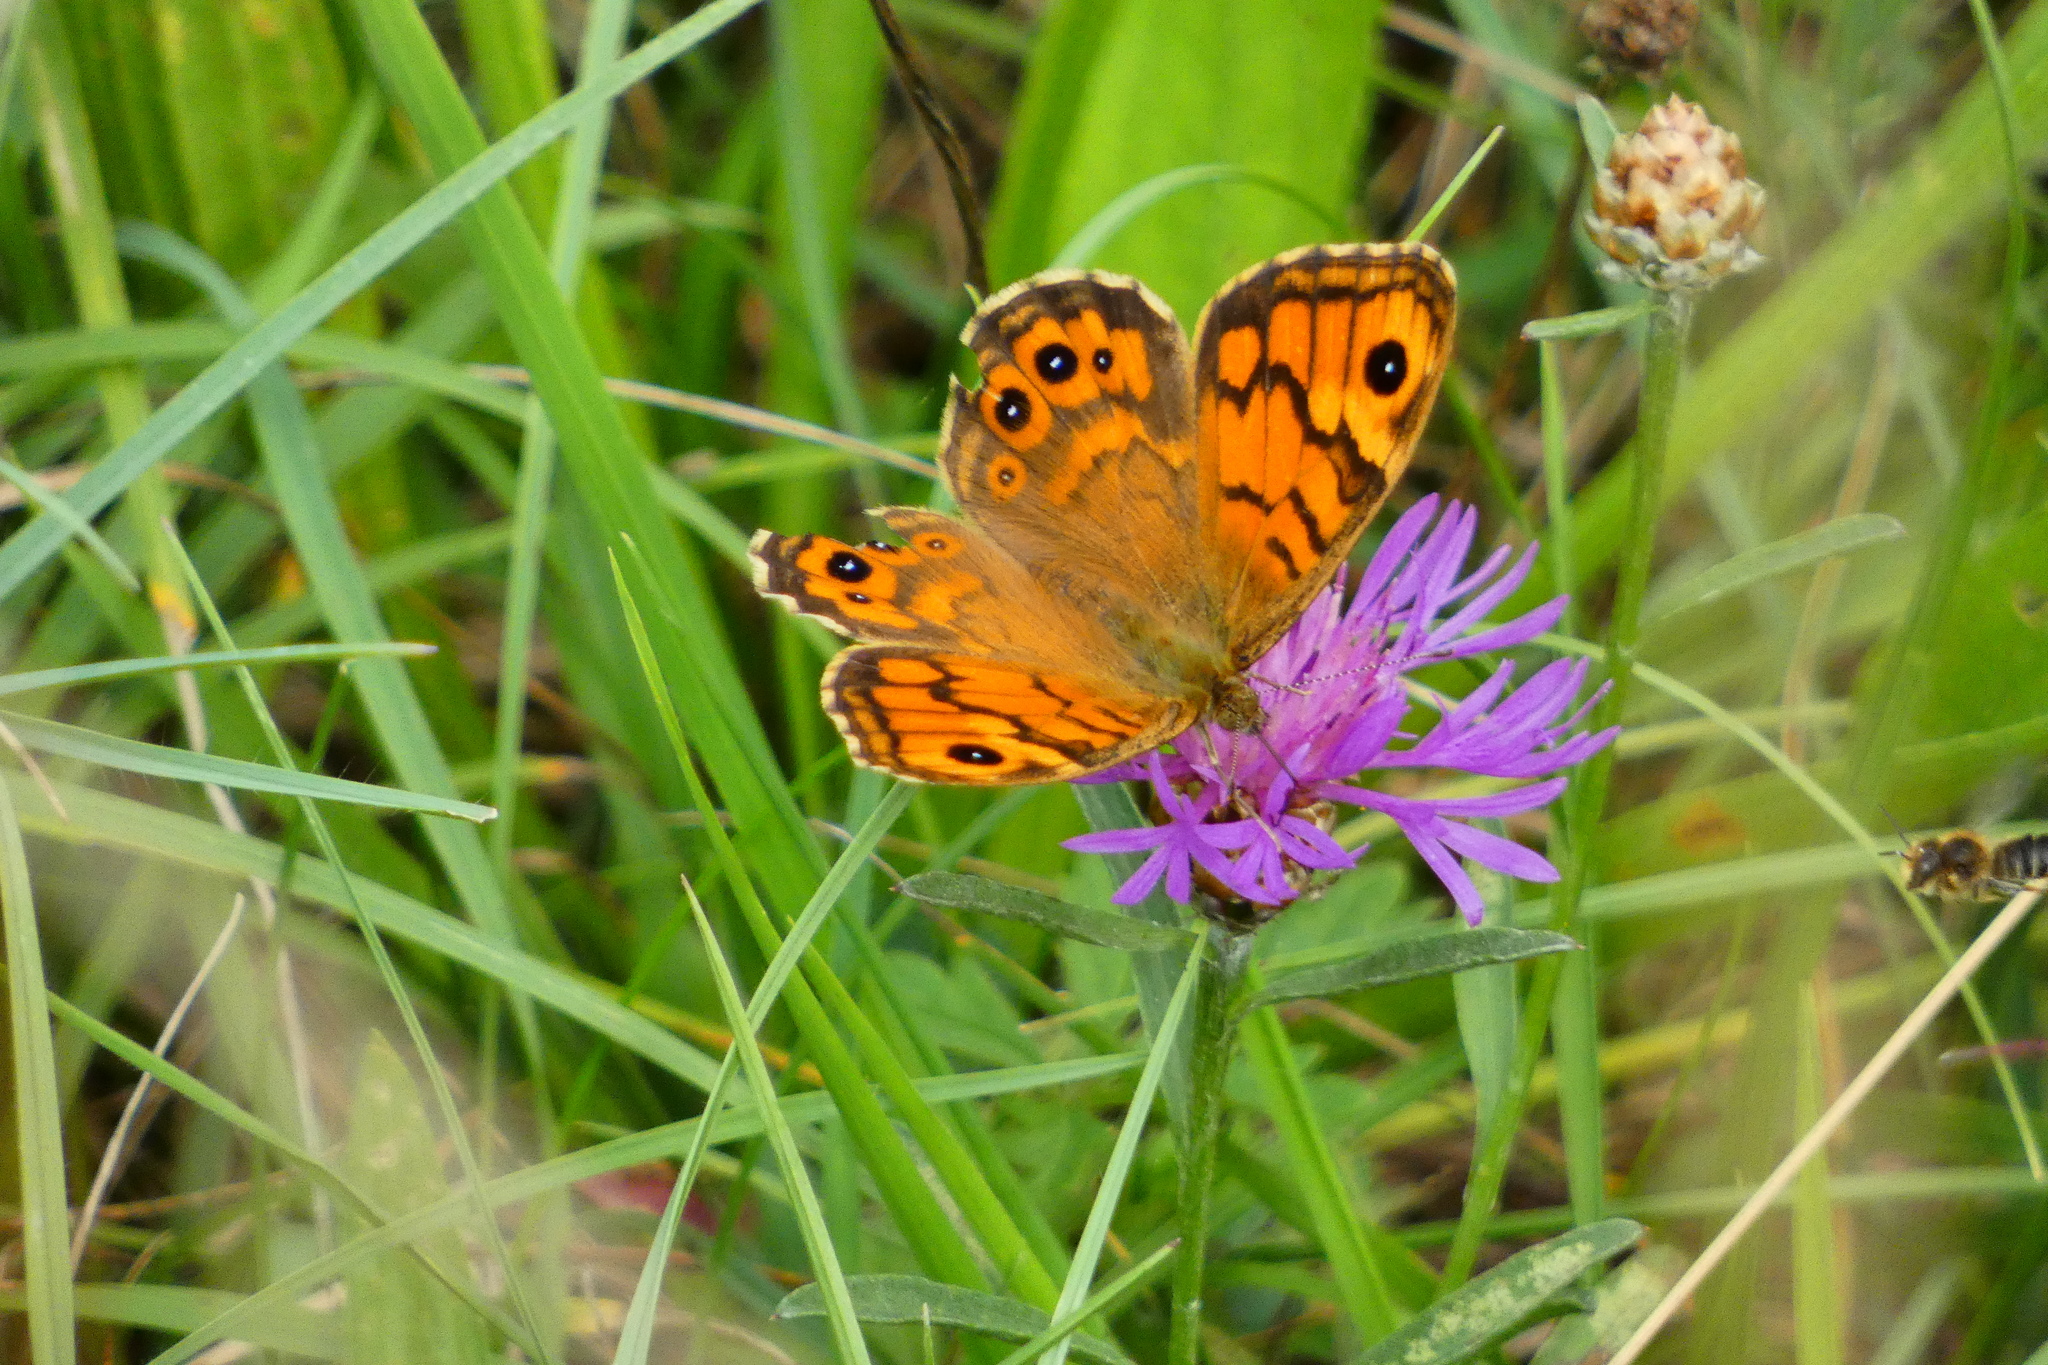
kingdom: Animalia
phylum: Arthropoda
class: Insecta
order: Lepidoptera
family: Nymphalidae
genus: Pararge
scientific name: Pararge Lasiommata megera
